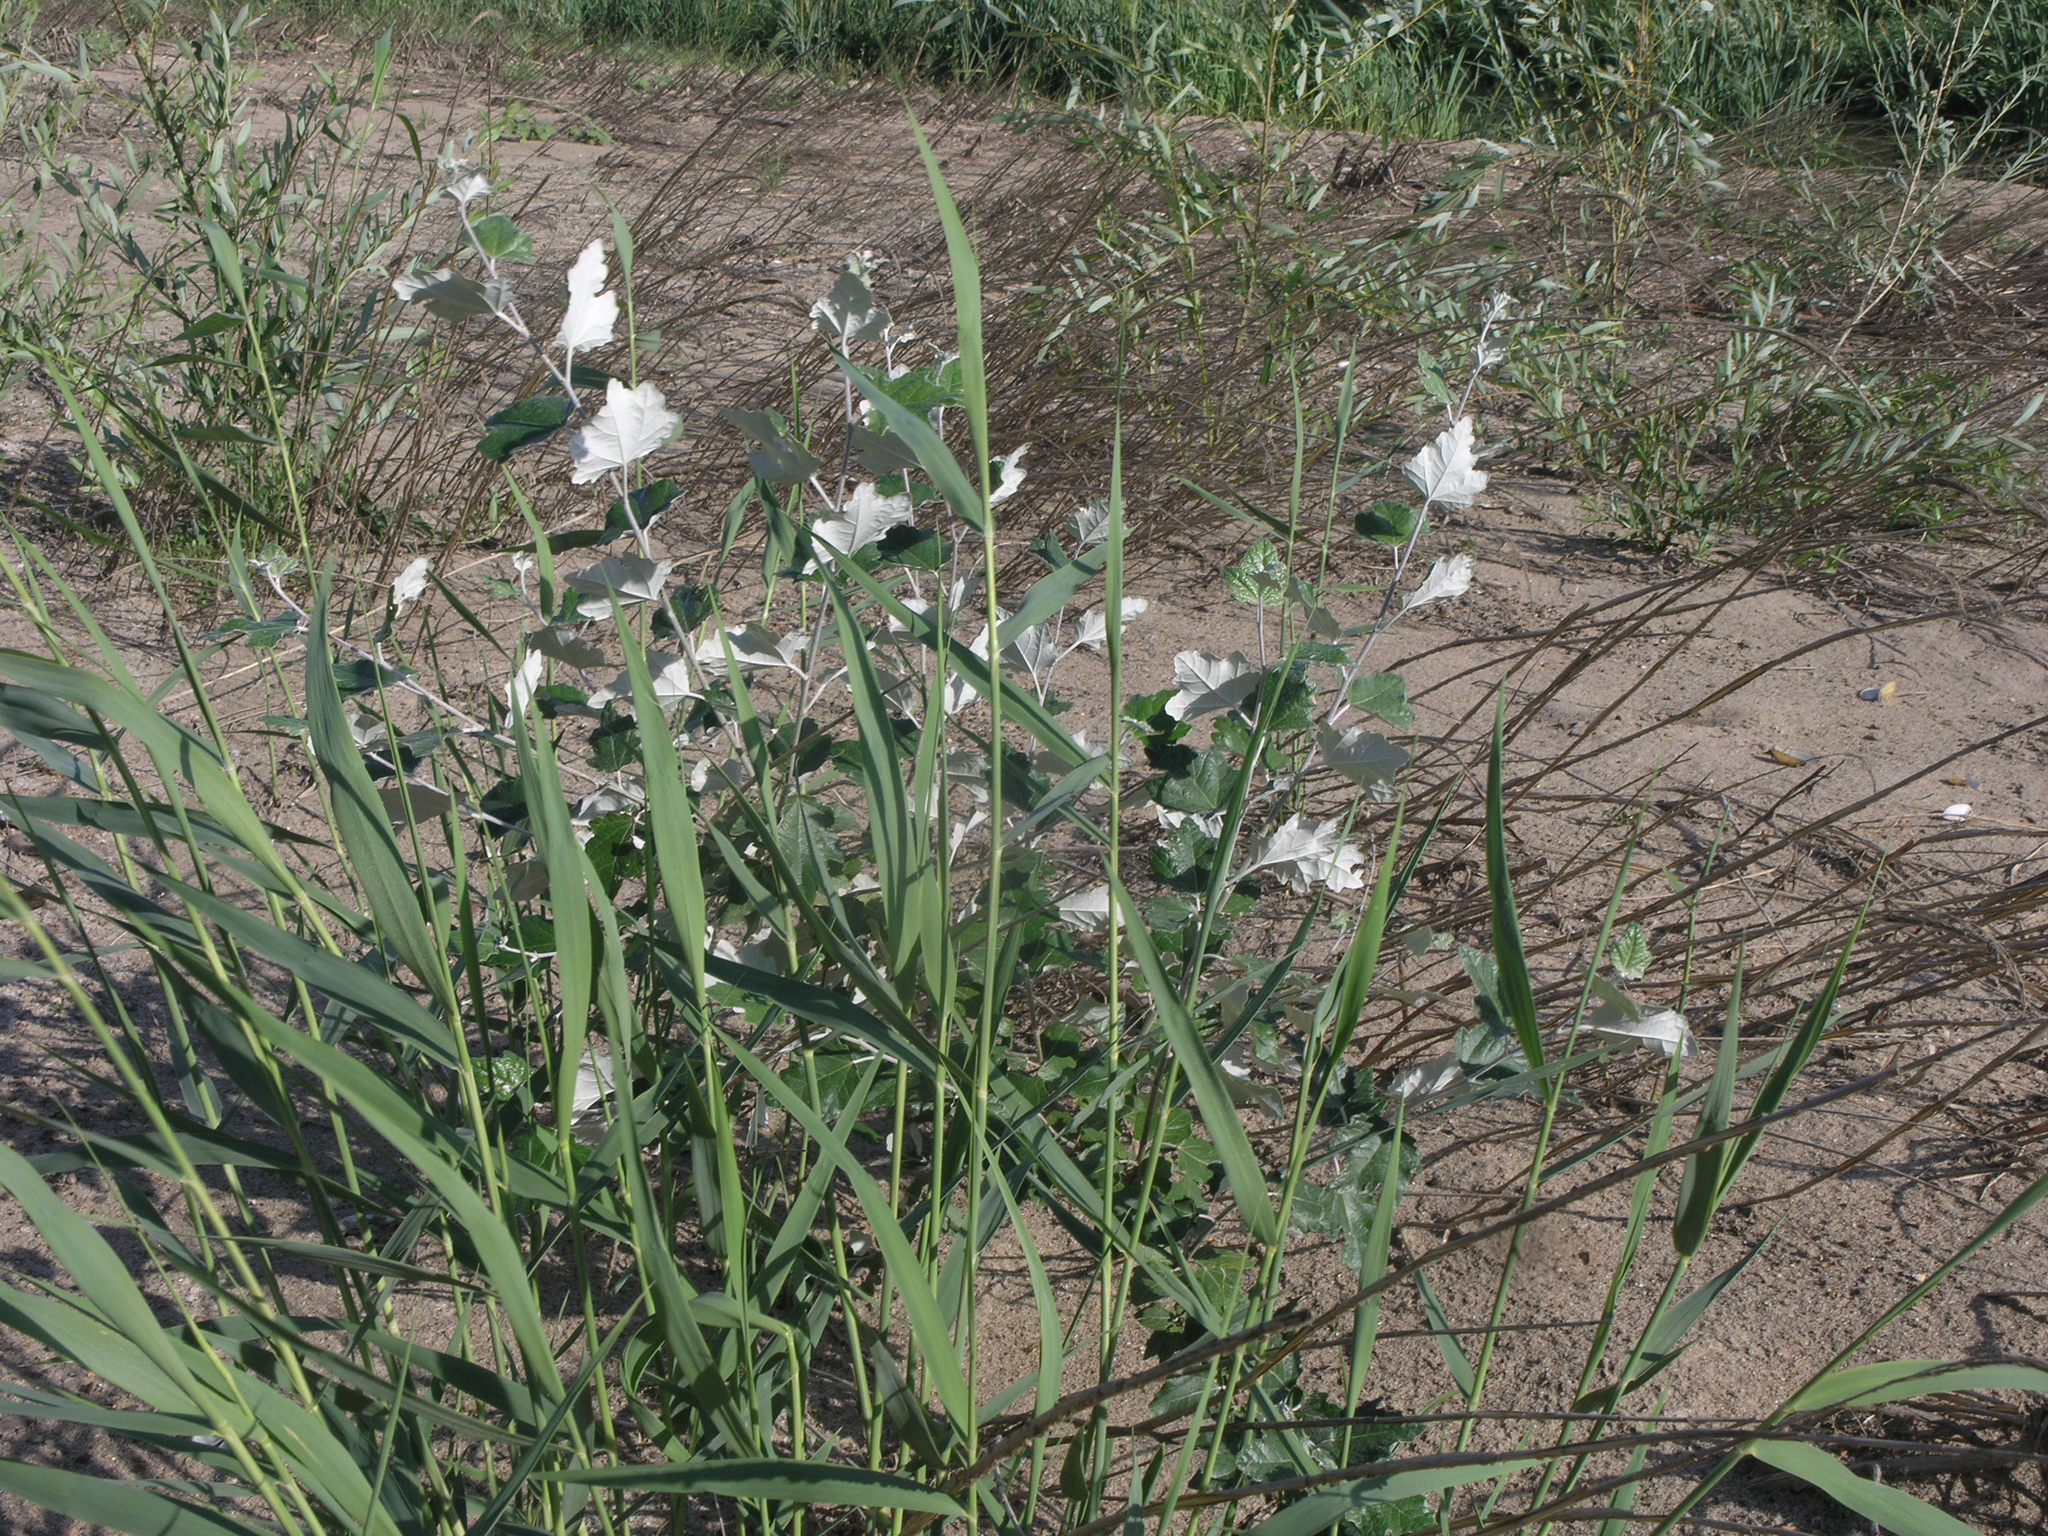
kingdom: Plantae
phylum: Tracheophyta
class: Magnoliopsida
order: Malpighiales
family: Salicaceae
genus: Populus
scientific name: Populus alba
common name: White poplar
